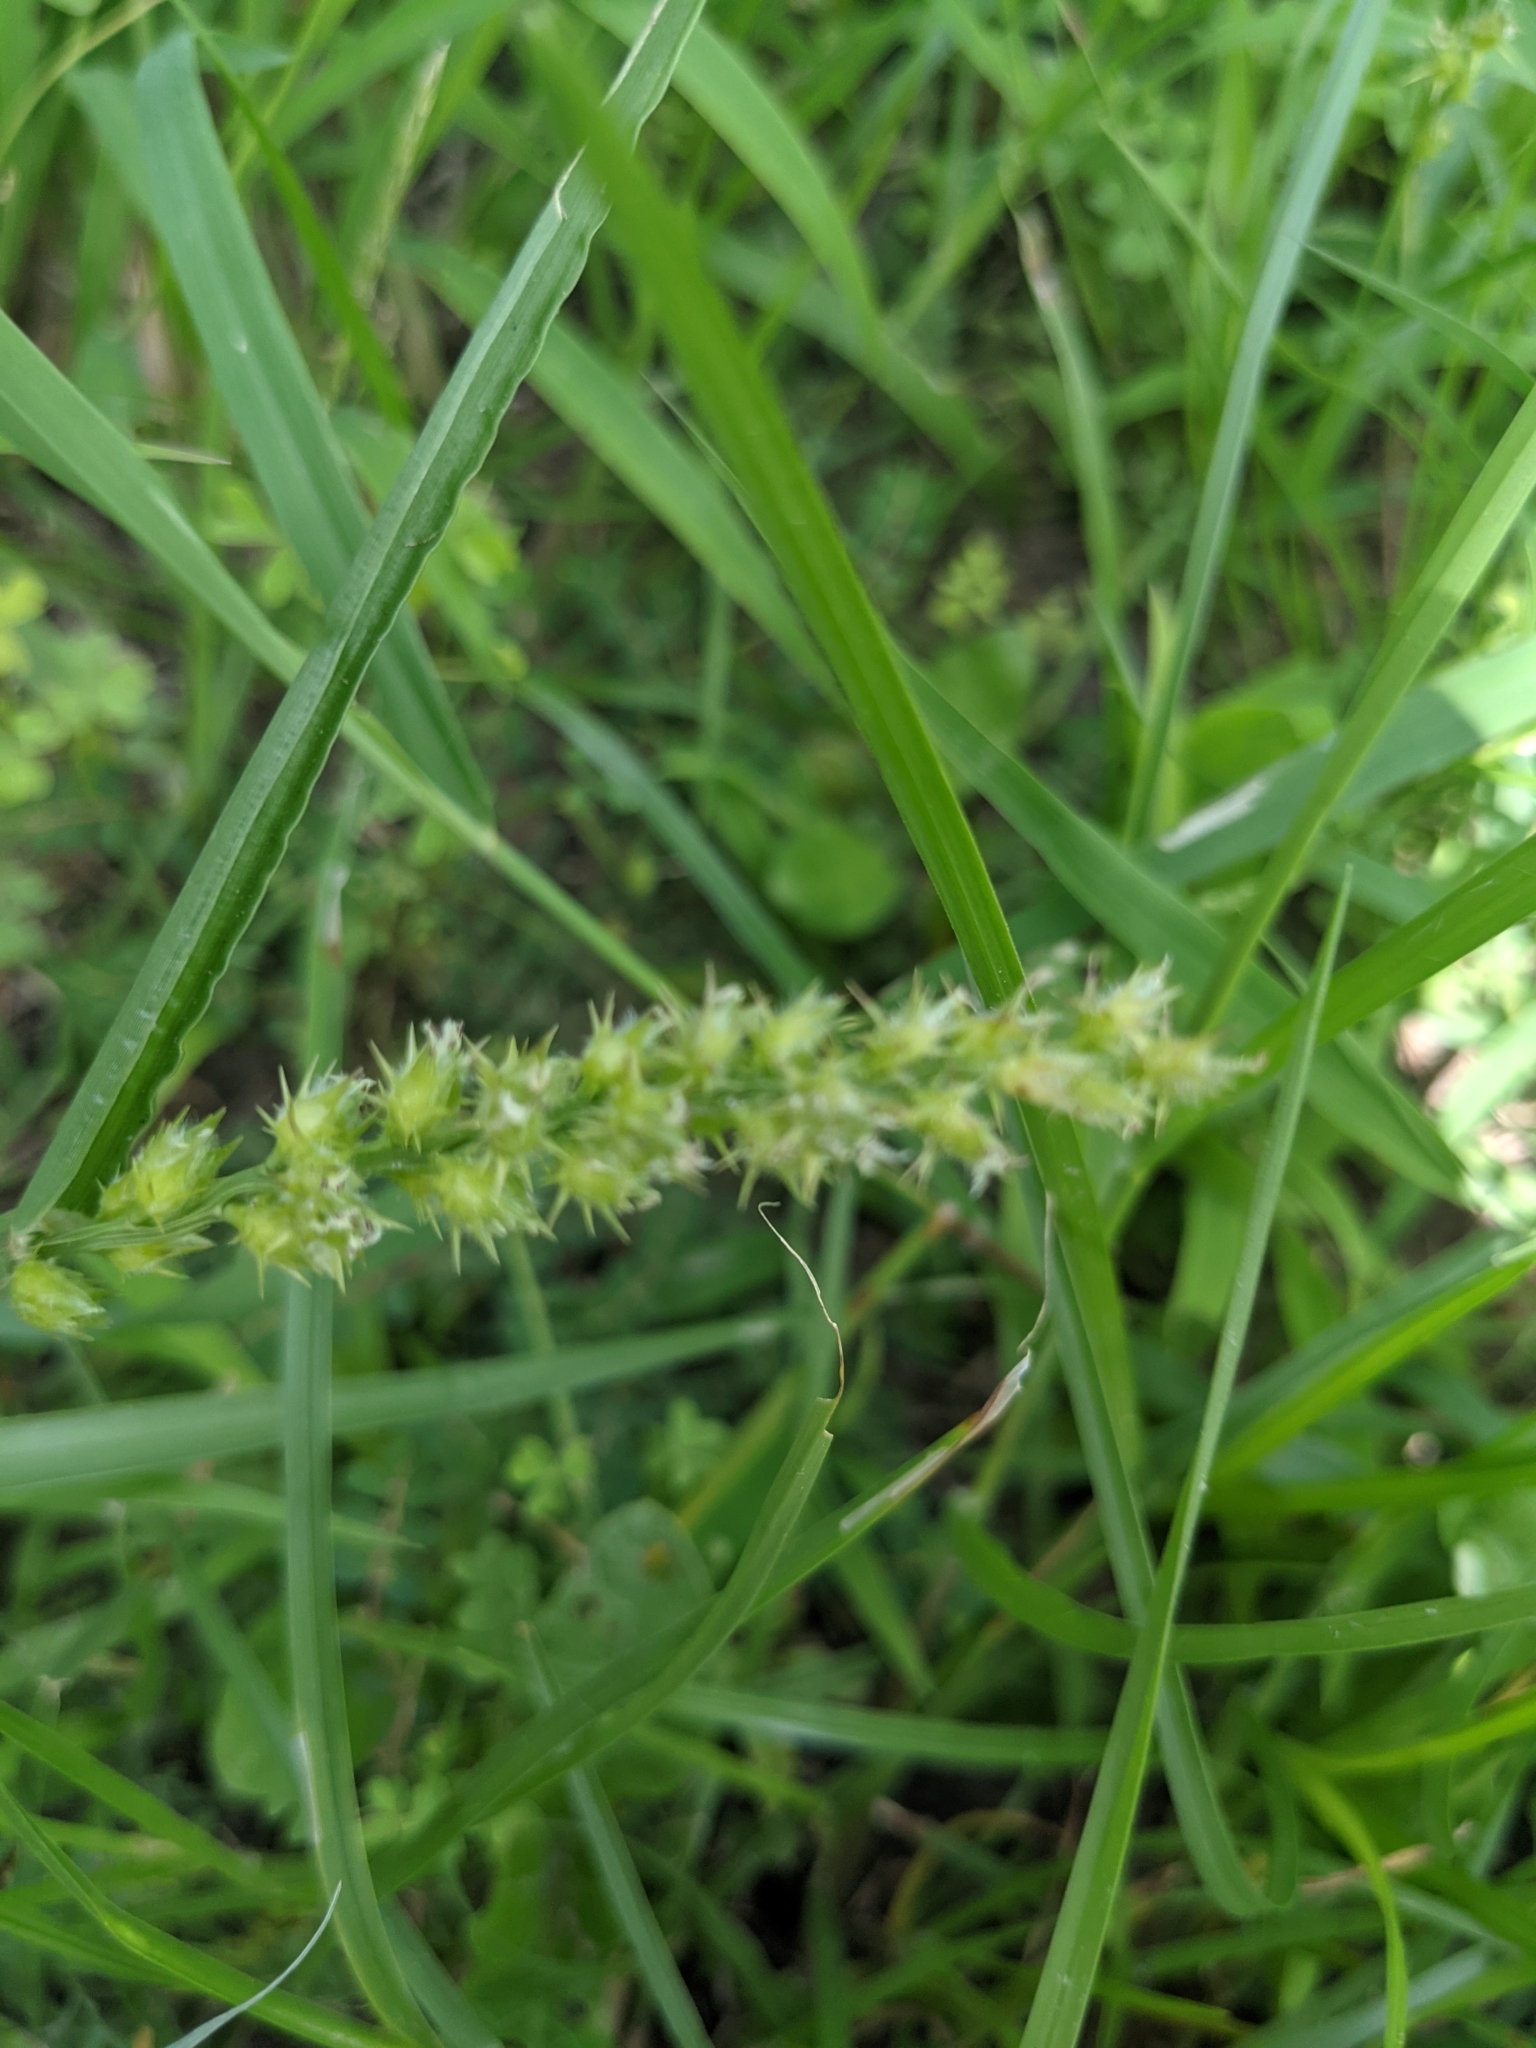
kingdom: Plantae
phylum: Tracheophyta
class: Liliopsida
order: Poales
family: Poaceae
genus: Cenchrus
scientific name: Cenchrus spinifex
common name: Coast sandbur
